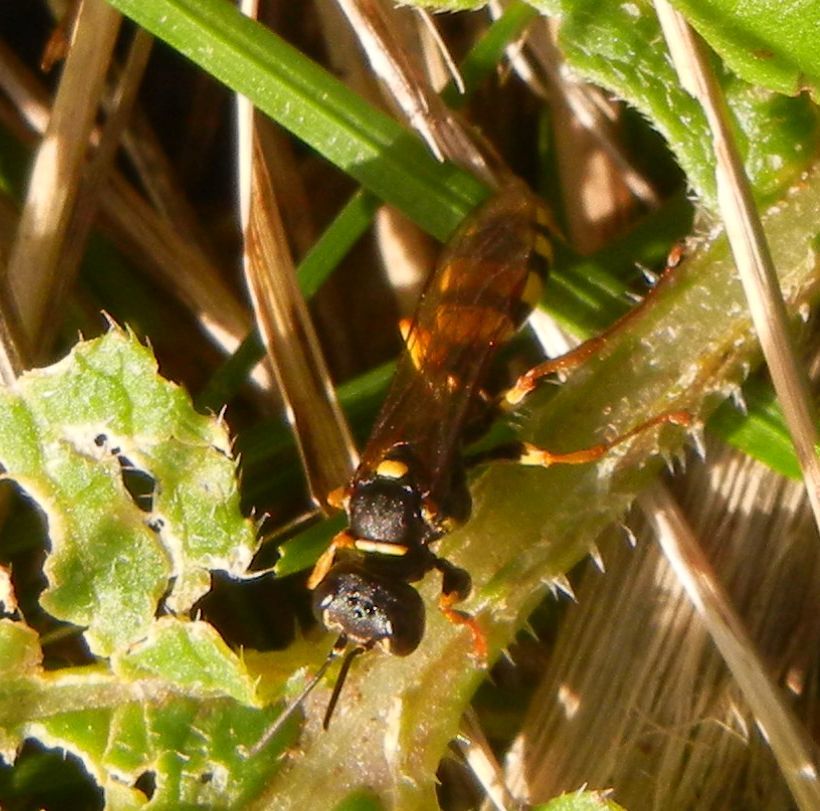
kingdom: Animalia
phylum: Arthropoda
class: Insecta
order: Hymenoptera
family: Crabronidae
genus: Mellinus
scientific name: Mellinus arvensis
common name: Field digger wasp
